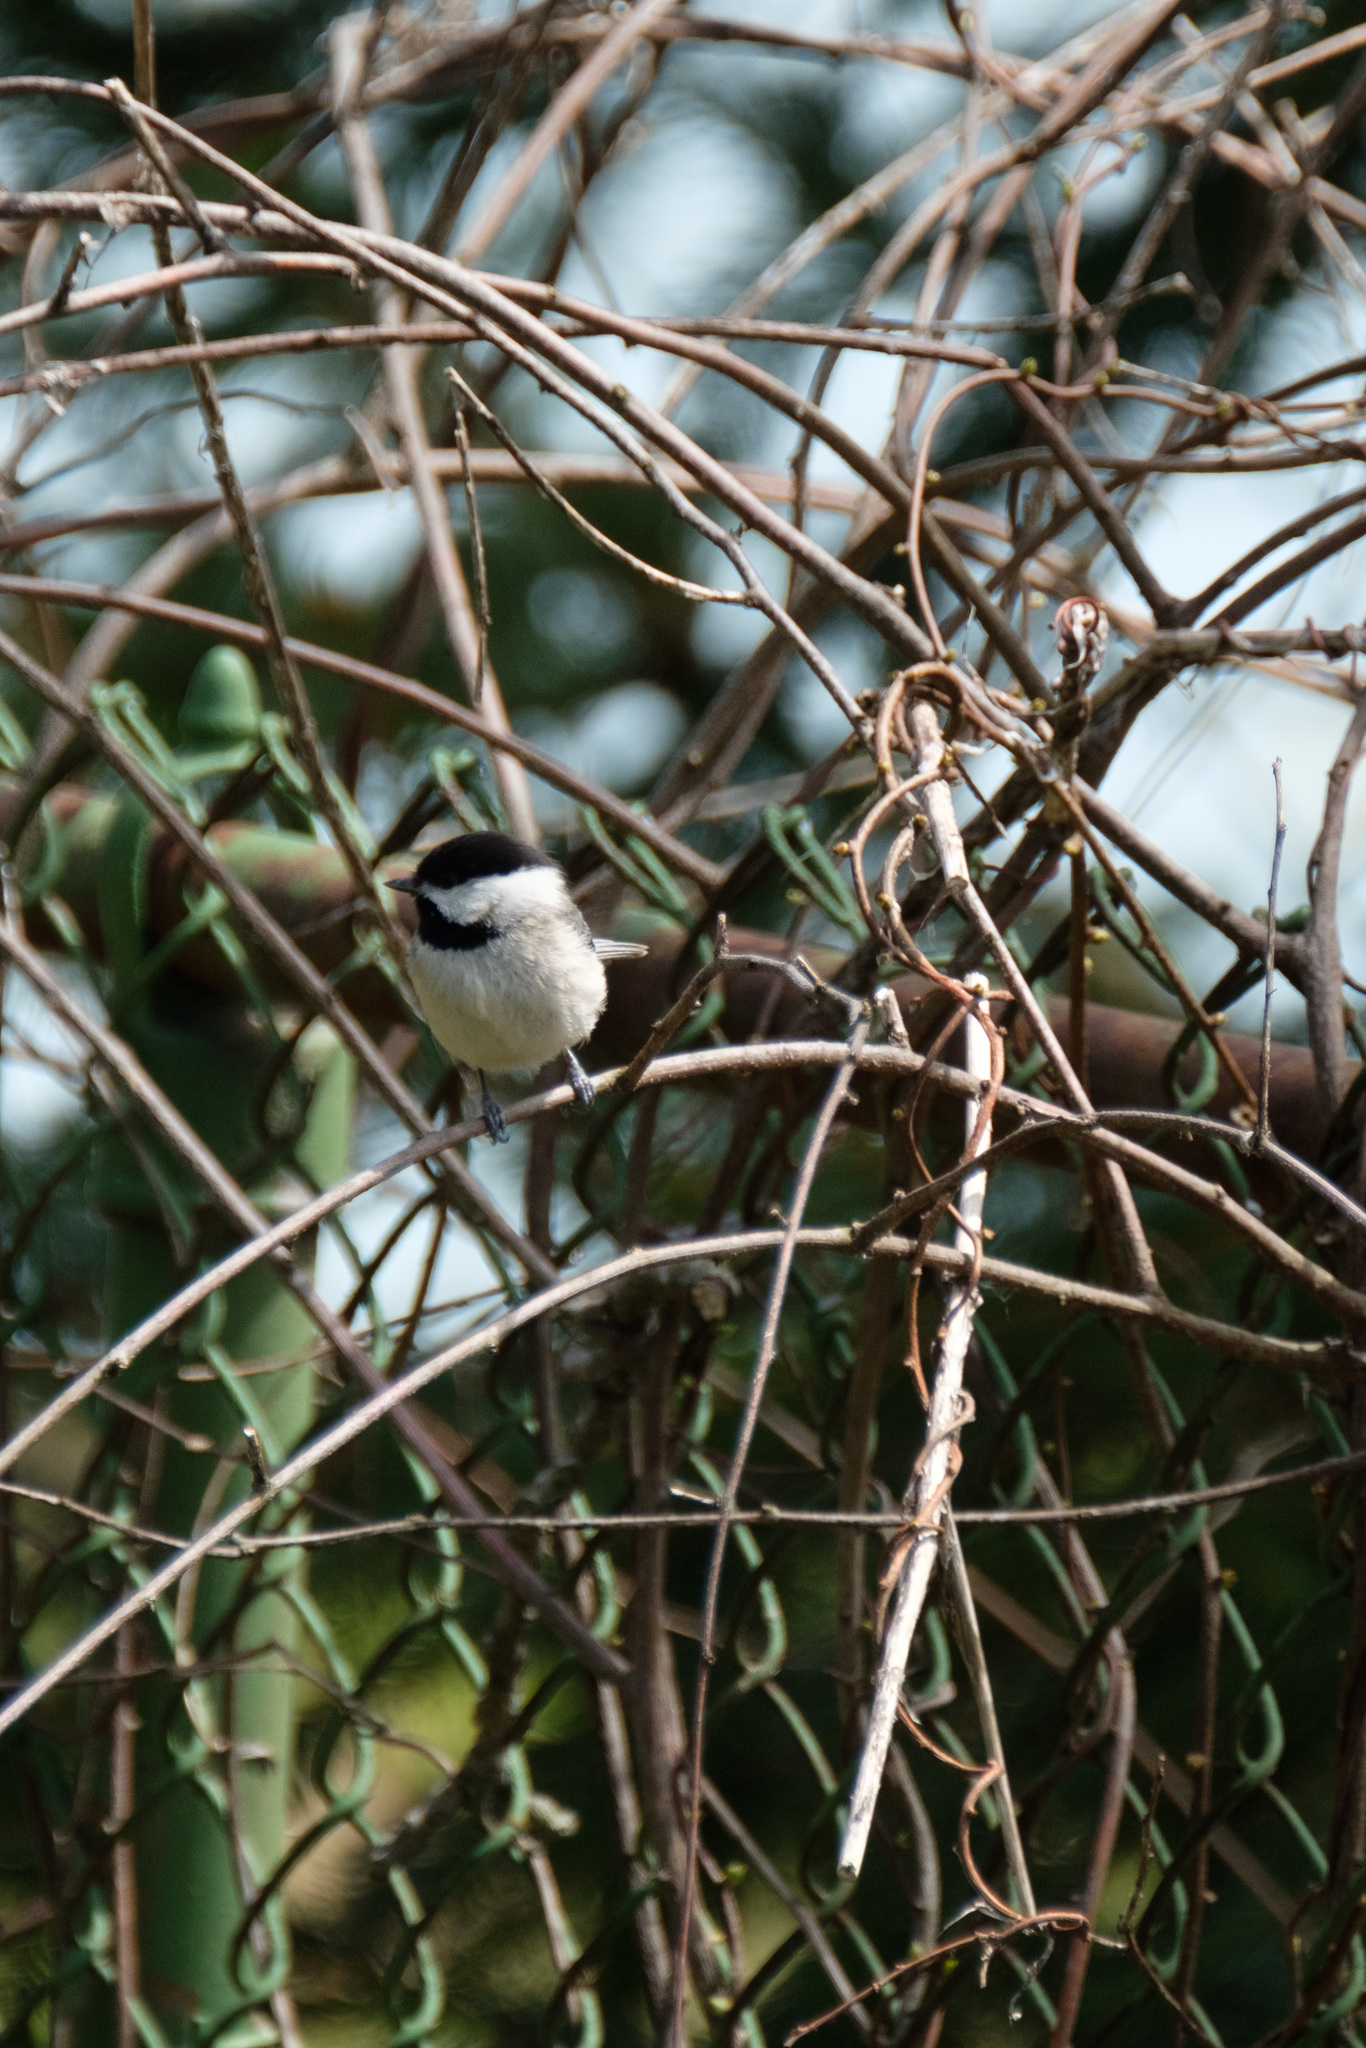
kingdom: Plantae
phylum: Tracheophyta
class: Magnoliopsida
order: Celastrales
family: Celastraceae
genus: Celastrus
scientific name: Celastrus orbiculatus
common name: Oriental bittersweet
